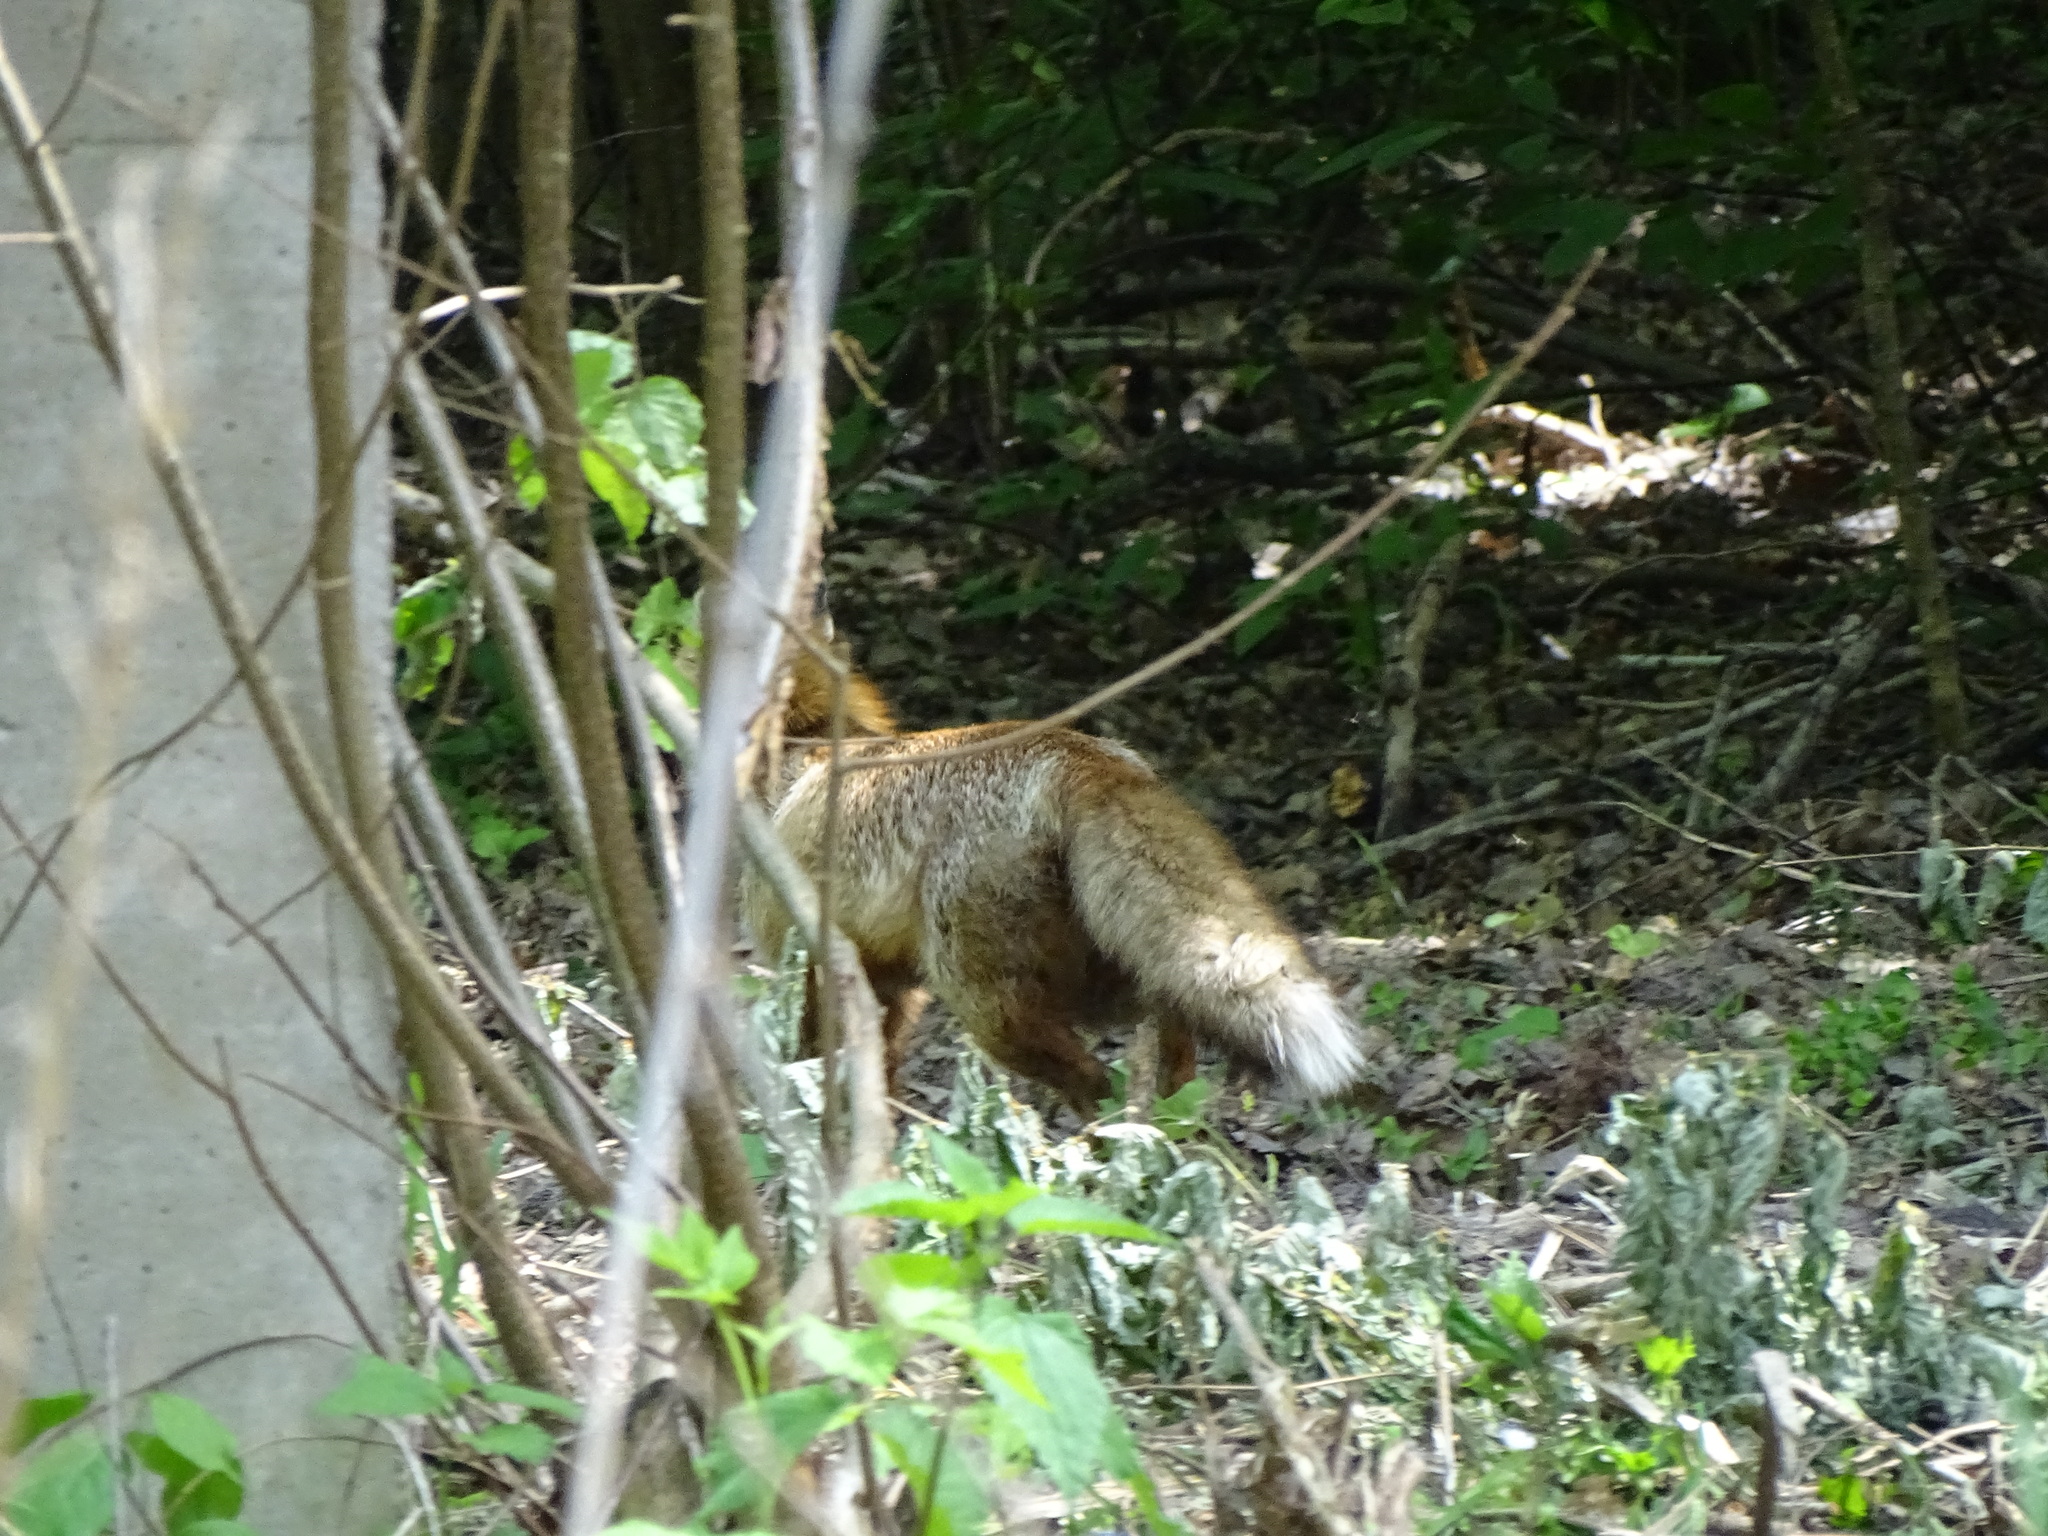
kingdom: Animalia
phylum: Chordata
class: Mammalia
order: Carnivora
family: Canidae
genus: Vulpes
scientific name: Vulpes vulpes
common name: Red fox
